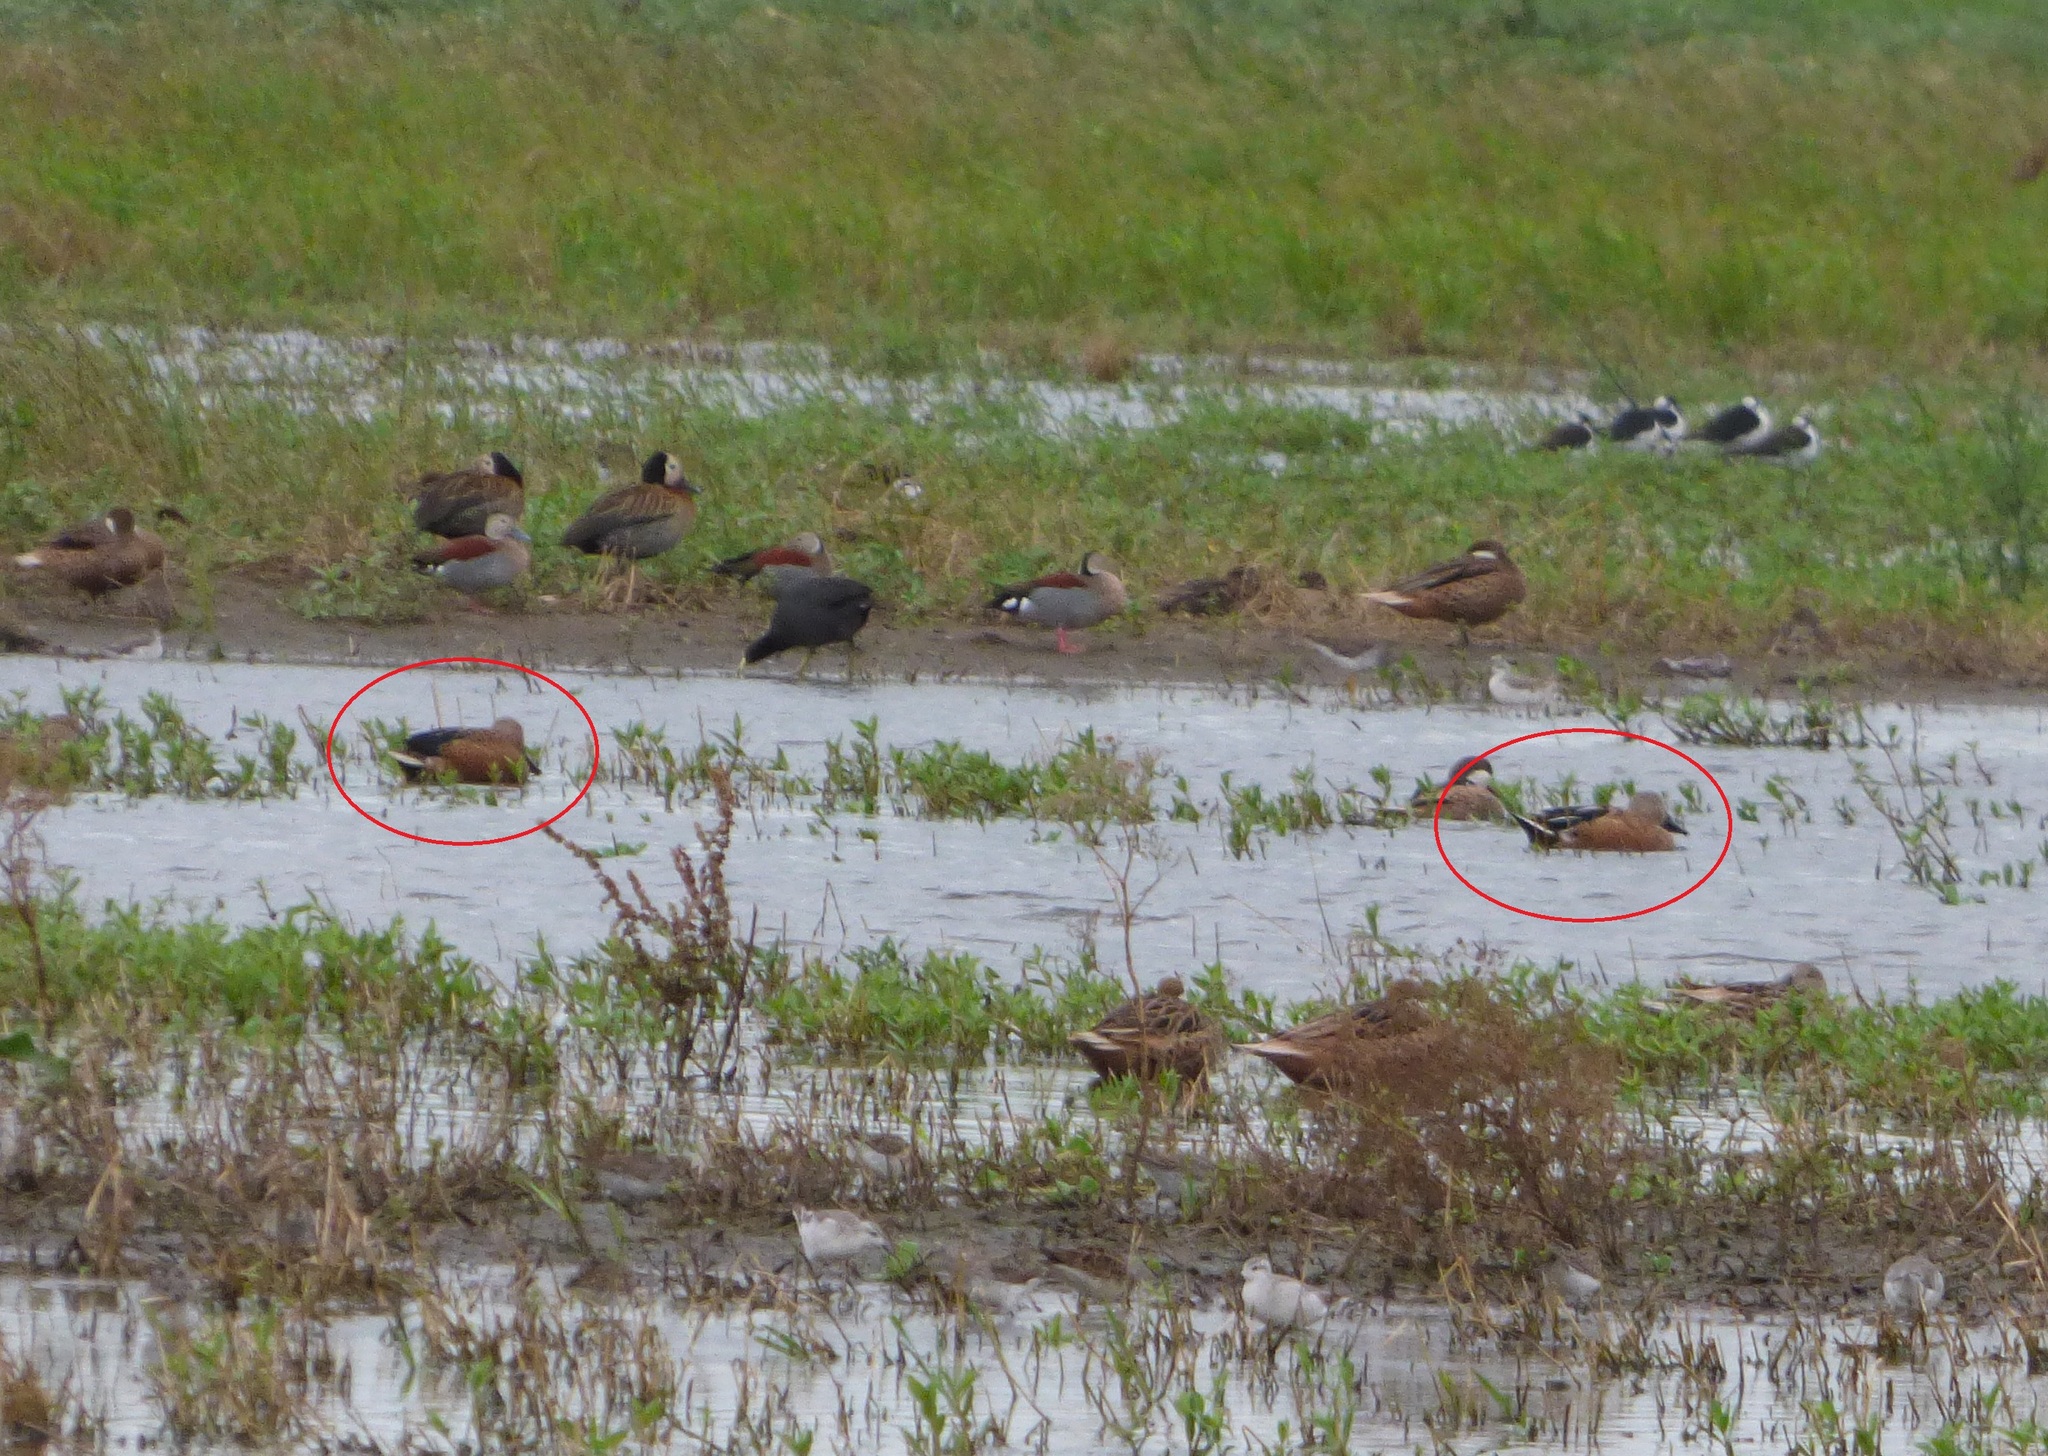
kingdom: Animalia
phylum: Chordata
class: Aves
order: Anseriformes
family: Anatidae
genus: Spatula
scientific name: Spatula platalea
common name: Red shoveler
